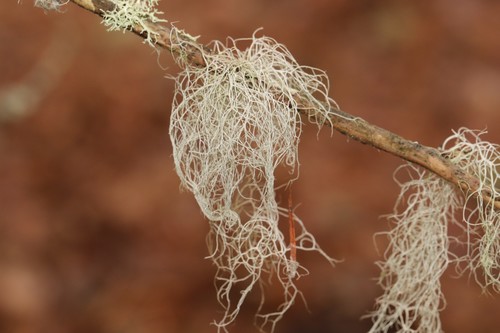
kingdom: Fungi
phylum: Ascomycota
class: Lecanoromycetes
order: Lecanorales
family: Parmeliaceae
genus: Bryoria
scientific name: Bryoria
